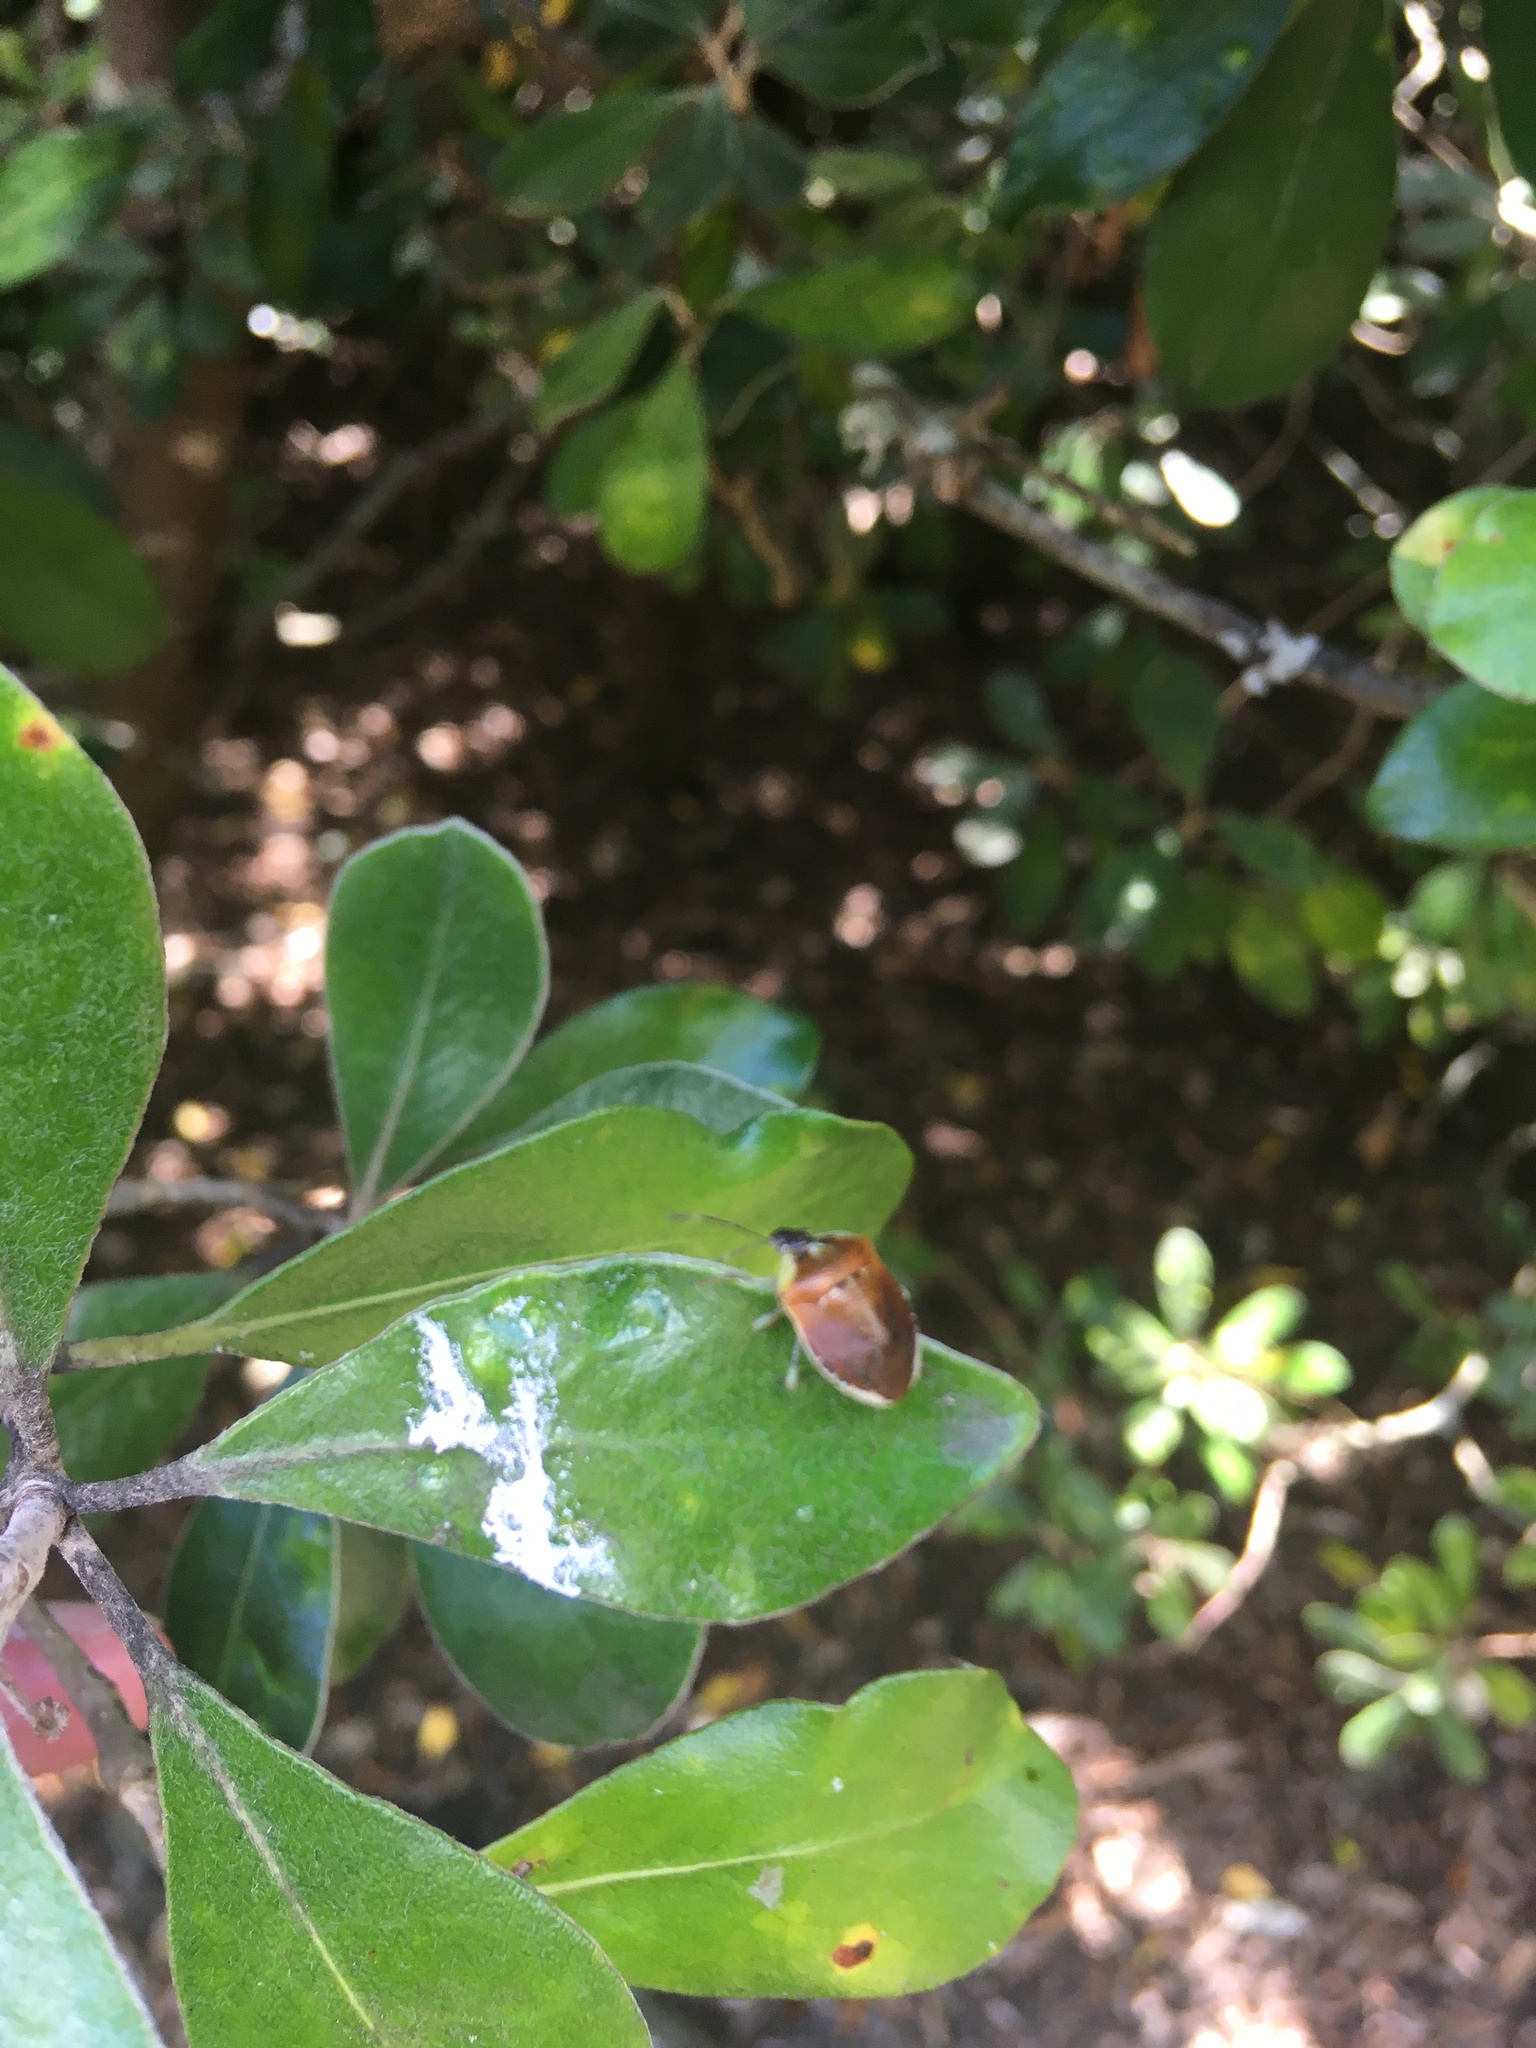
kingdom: Animalia
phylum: Arthropoda
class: Insecta
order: Hemiptera
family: Pentatomidae
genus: Monteithiella
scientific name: Monteithiella
